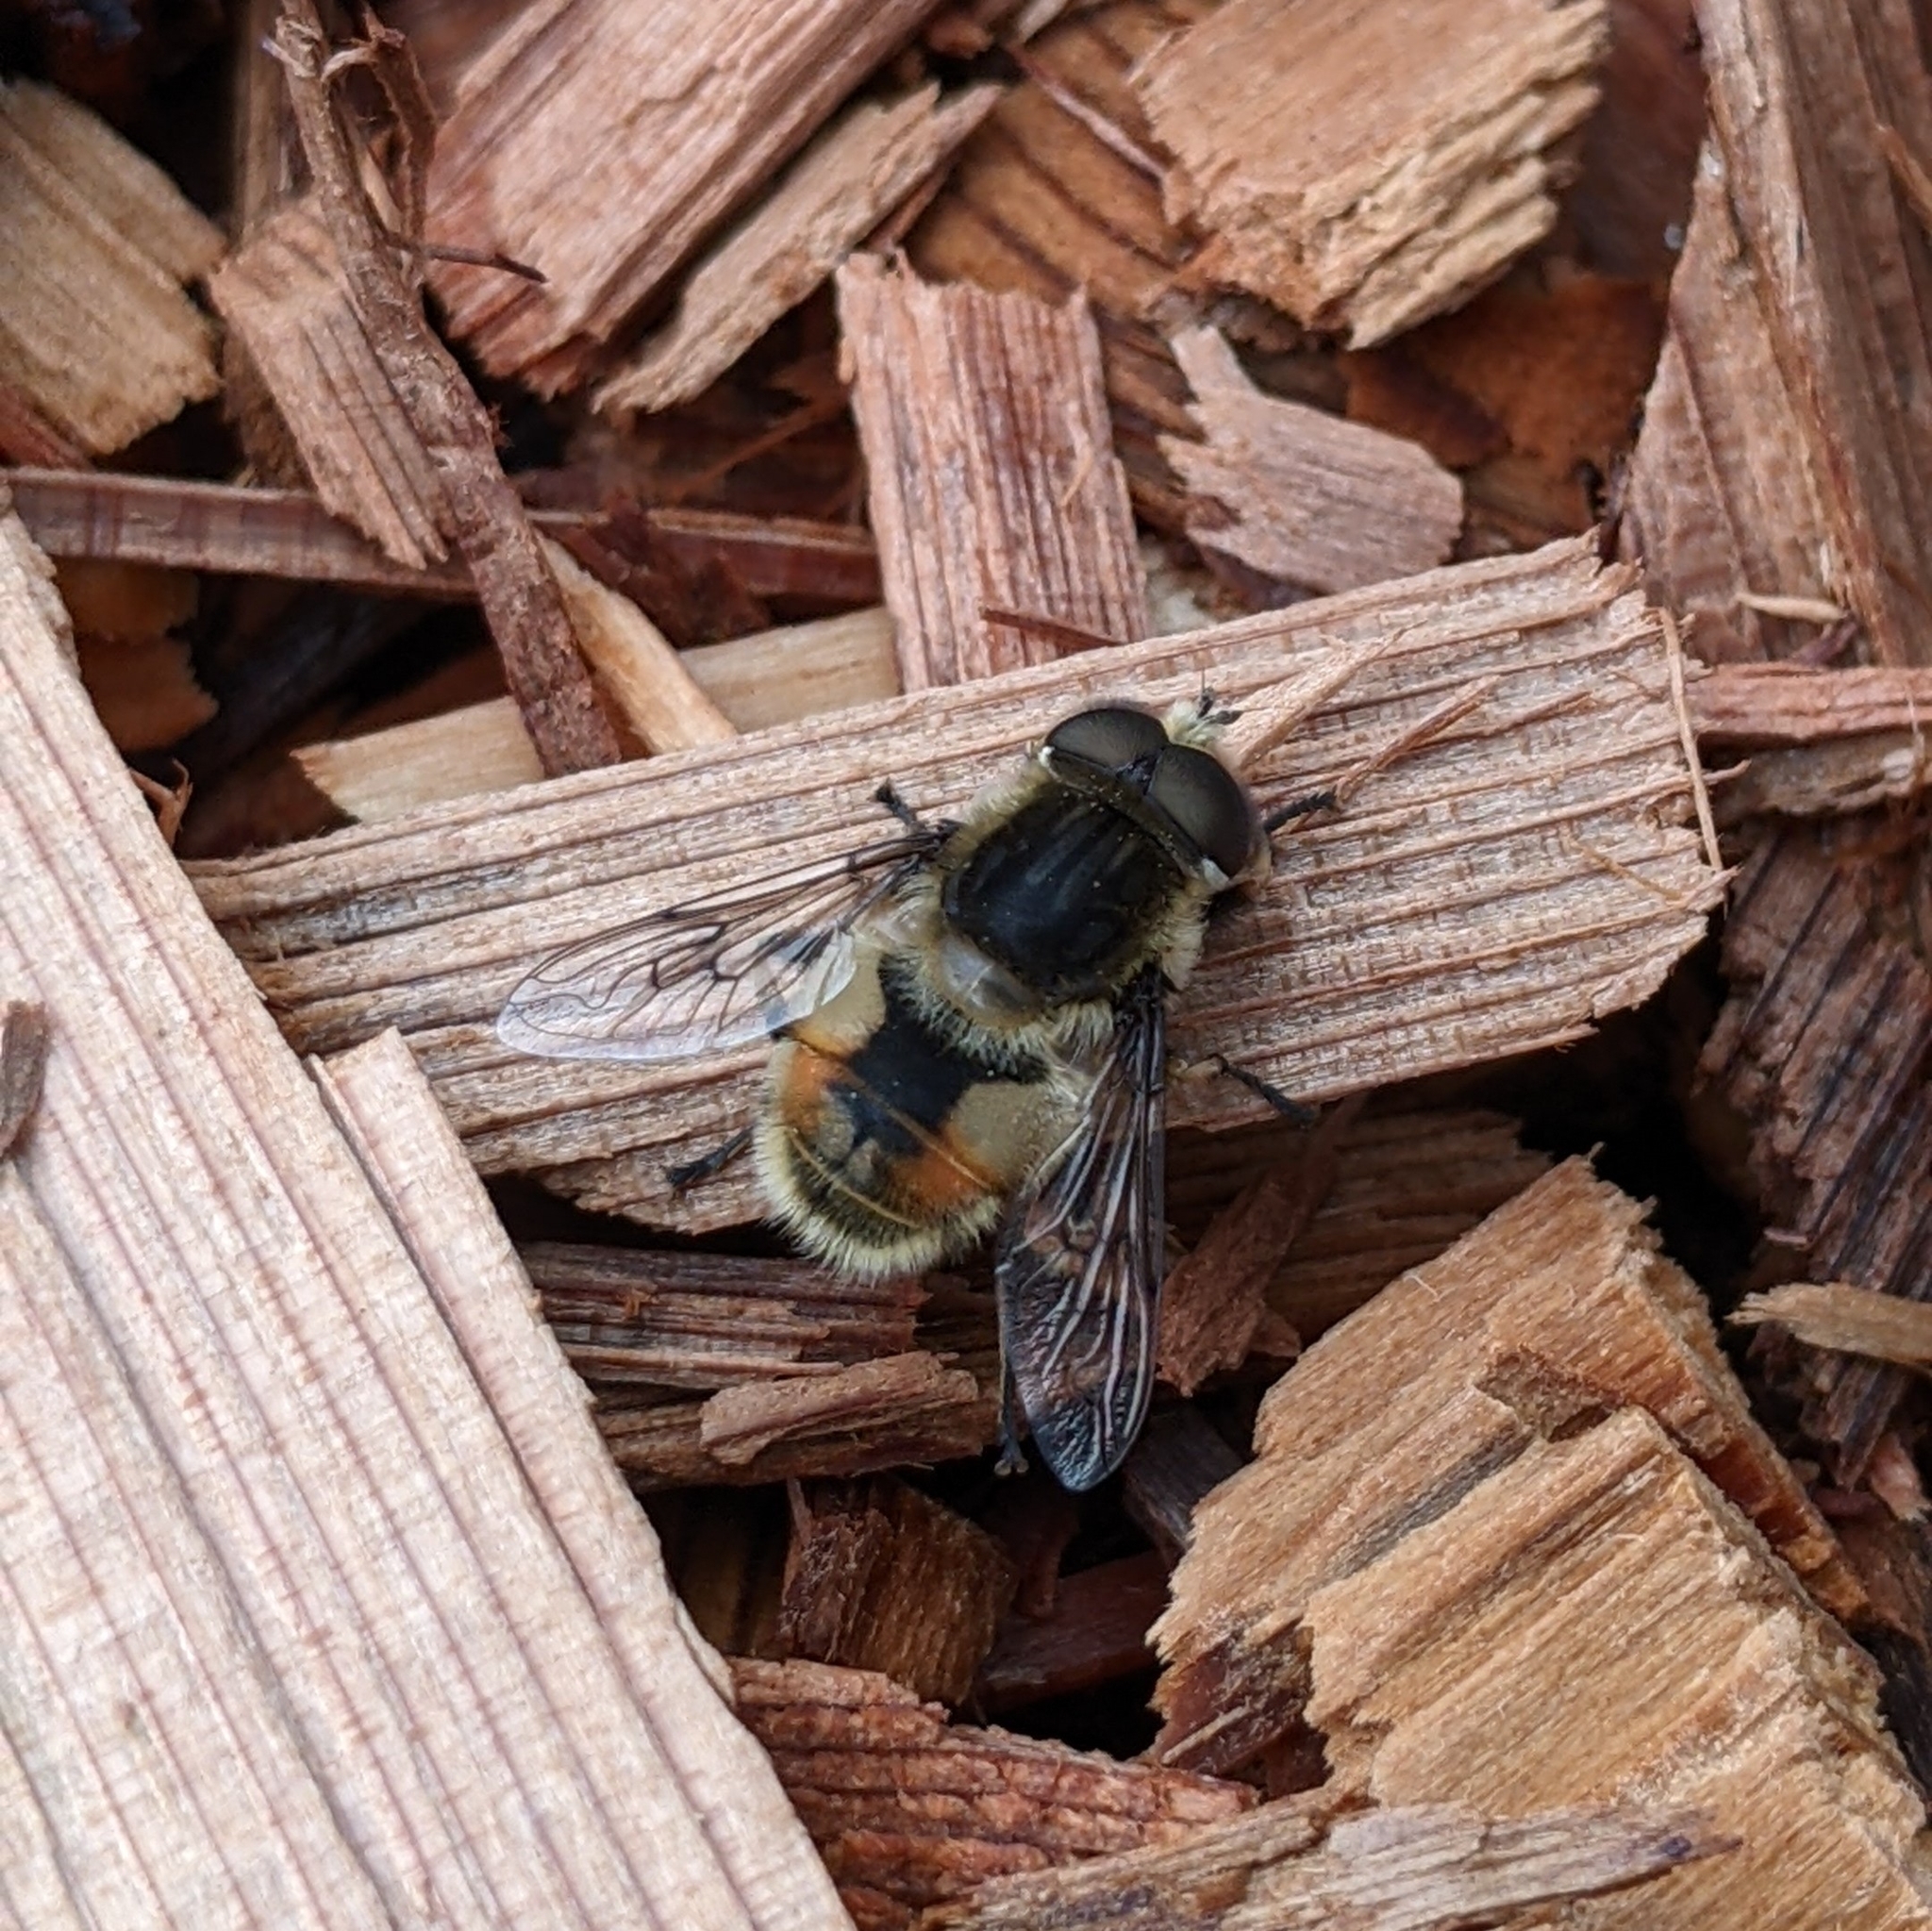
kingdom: Animalia
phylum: Arthropoda
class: Insecta
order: Diptera
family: Syrphidae
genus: Eristalis
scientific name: Eristalis anthophorina
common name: Orange-spotted drone fly
